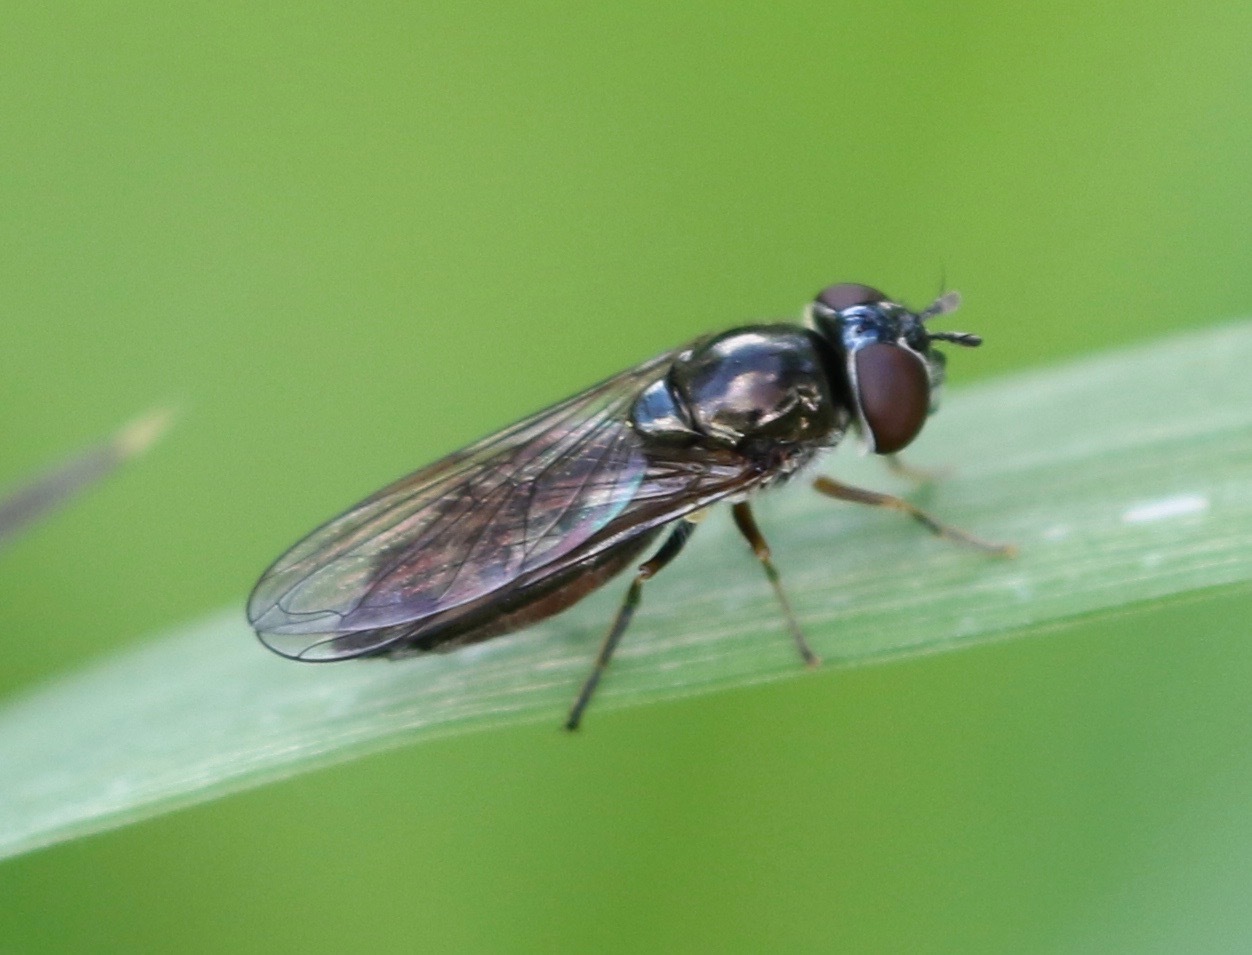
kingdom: Animalia
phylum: Arthropoda
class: Insecta
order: Diptera
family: Syrphidae
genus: Platycheirus
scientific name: Platycheirus albimanus
